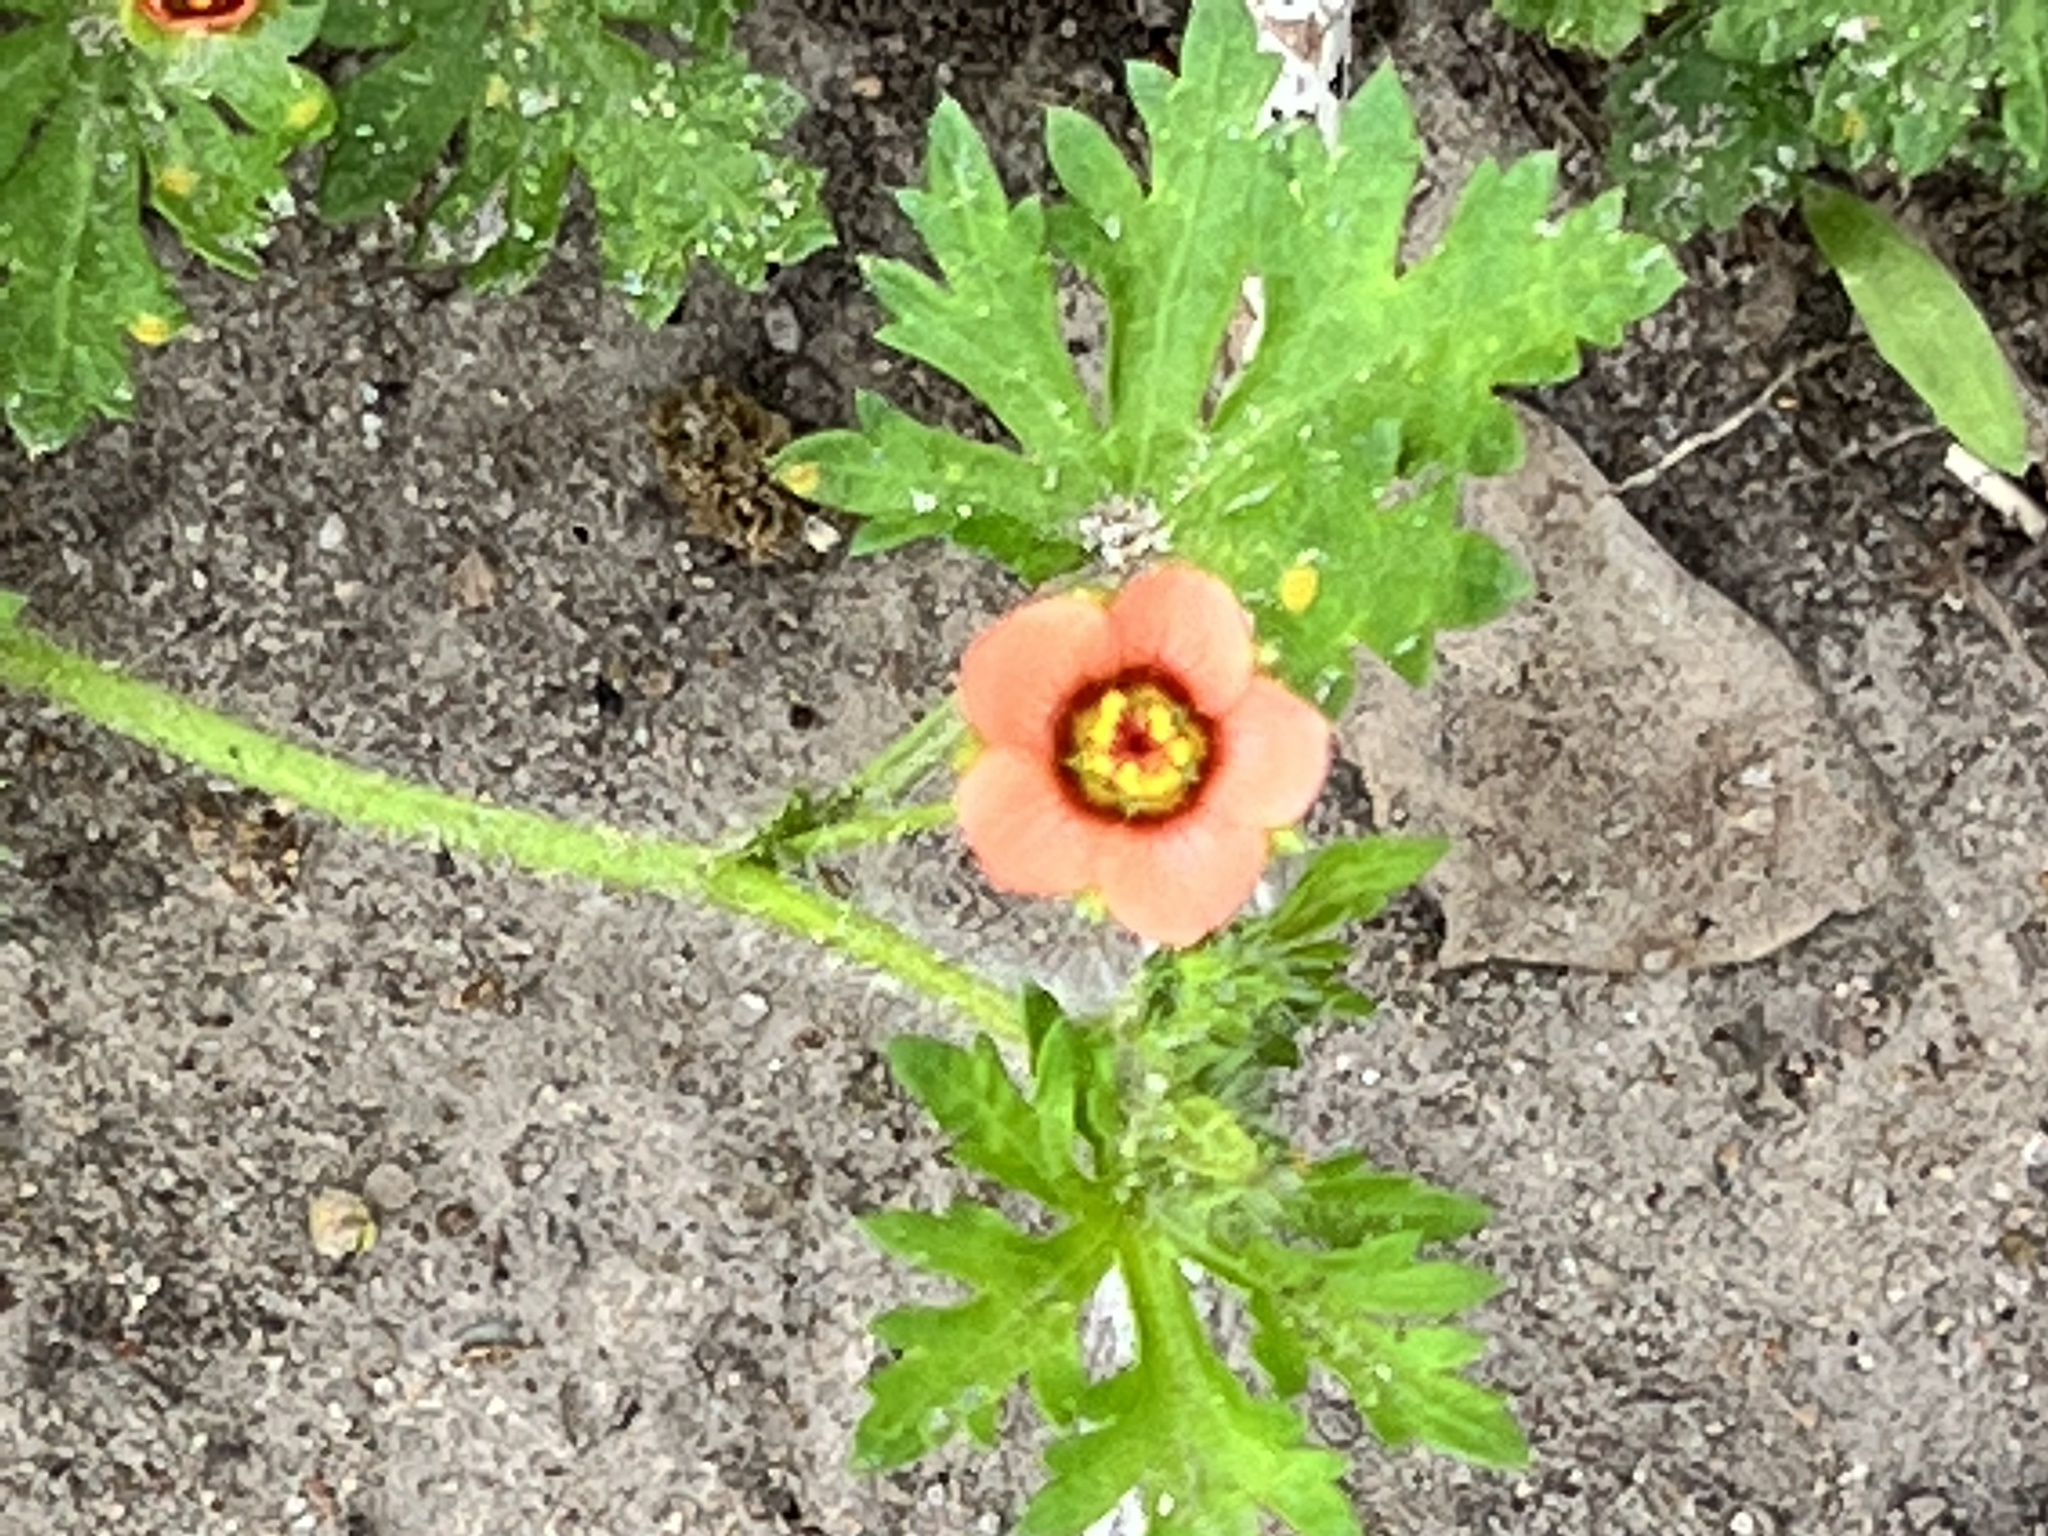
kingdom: Plantae
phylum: Tracheophyta
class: Magnoliopsida
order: Malvales
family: Malvaceae
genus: Modiola
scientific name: Modiola caroliniana
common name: Carolina bristlemallow
